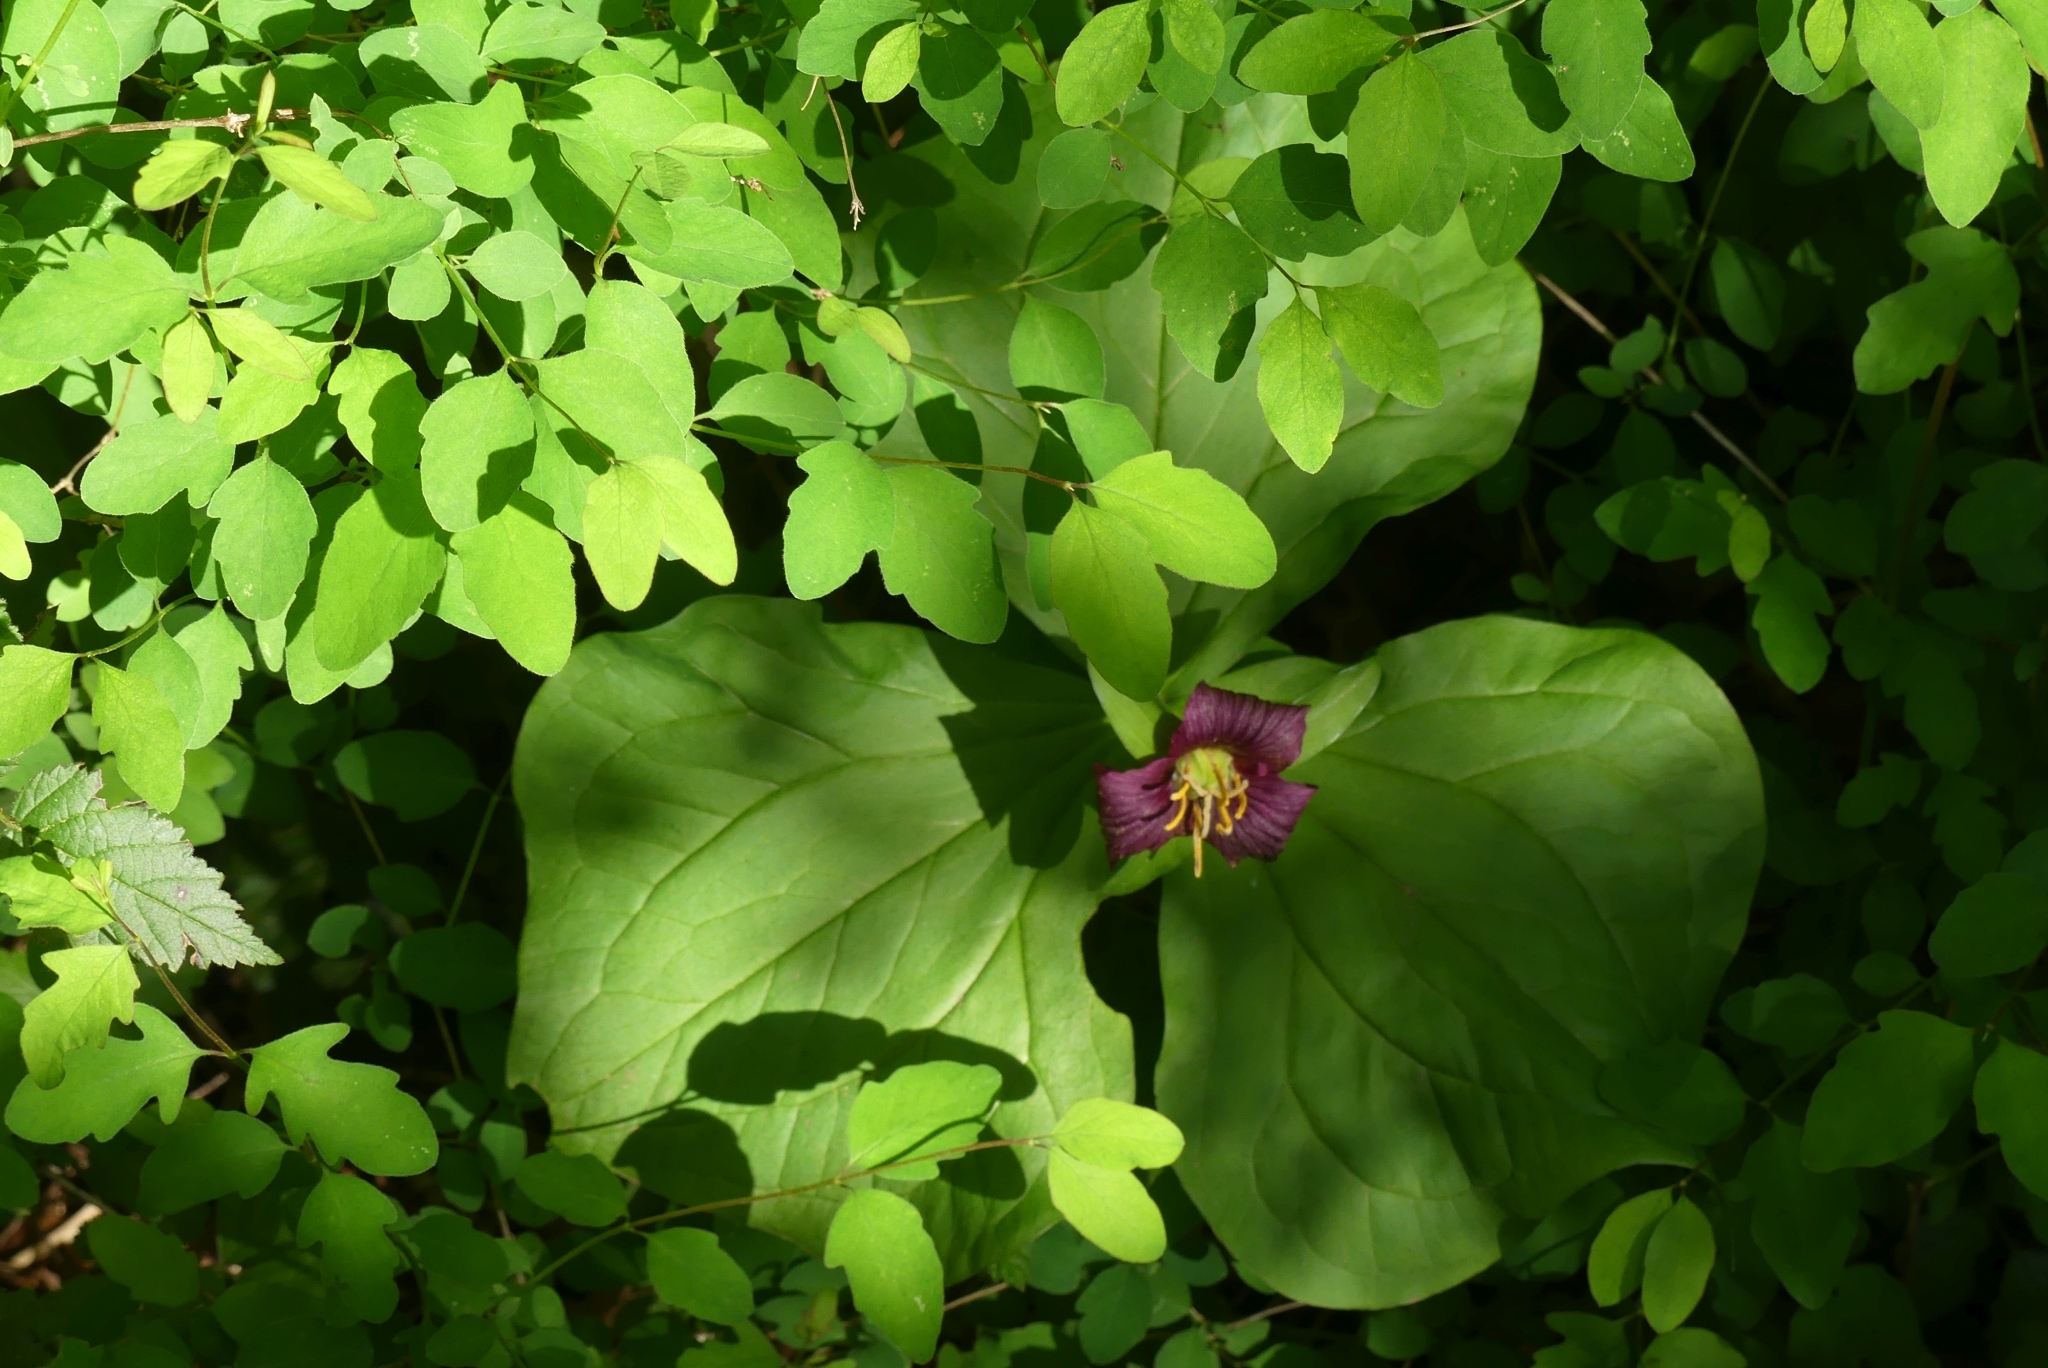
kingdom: Plantae
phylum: Tracheophyta
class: Liliopsida
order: Liliales
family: Melanthiaceae
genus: Trillium
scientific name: Trillium ovatum
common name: Pacific trillium
